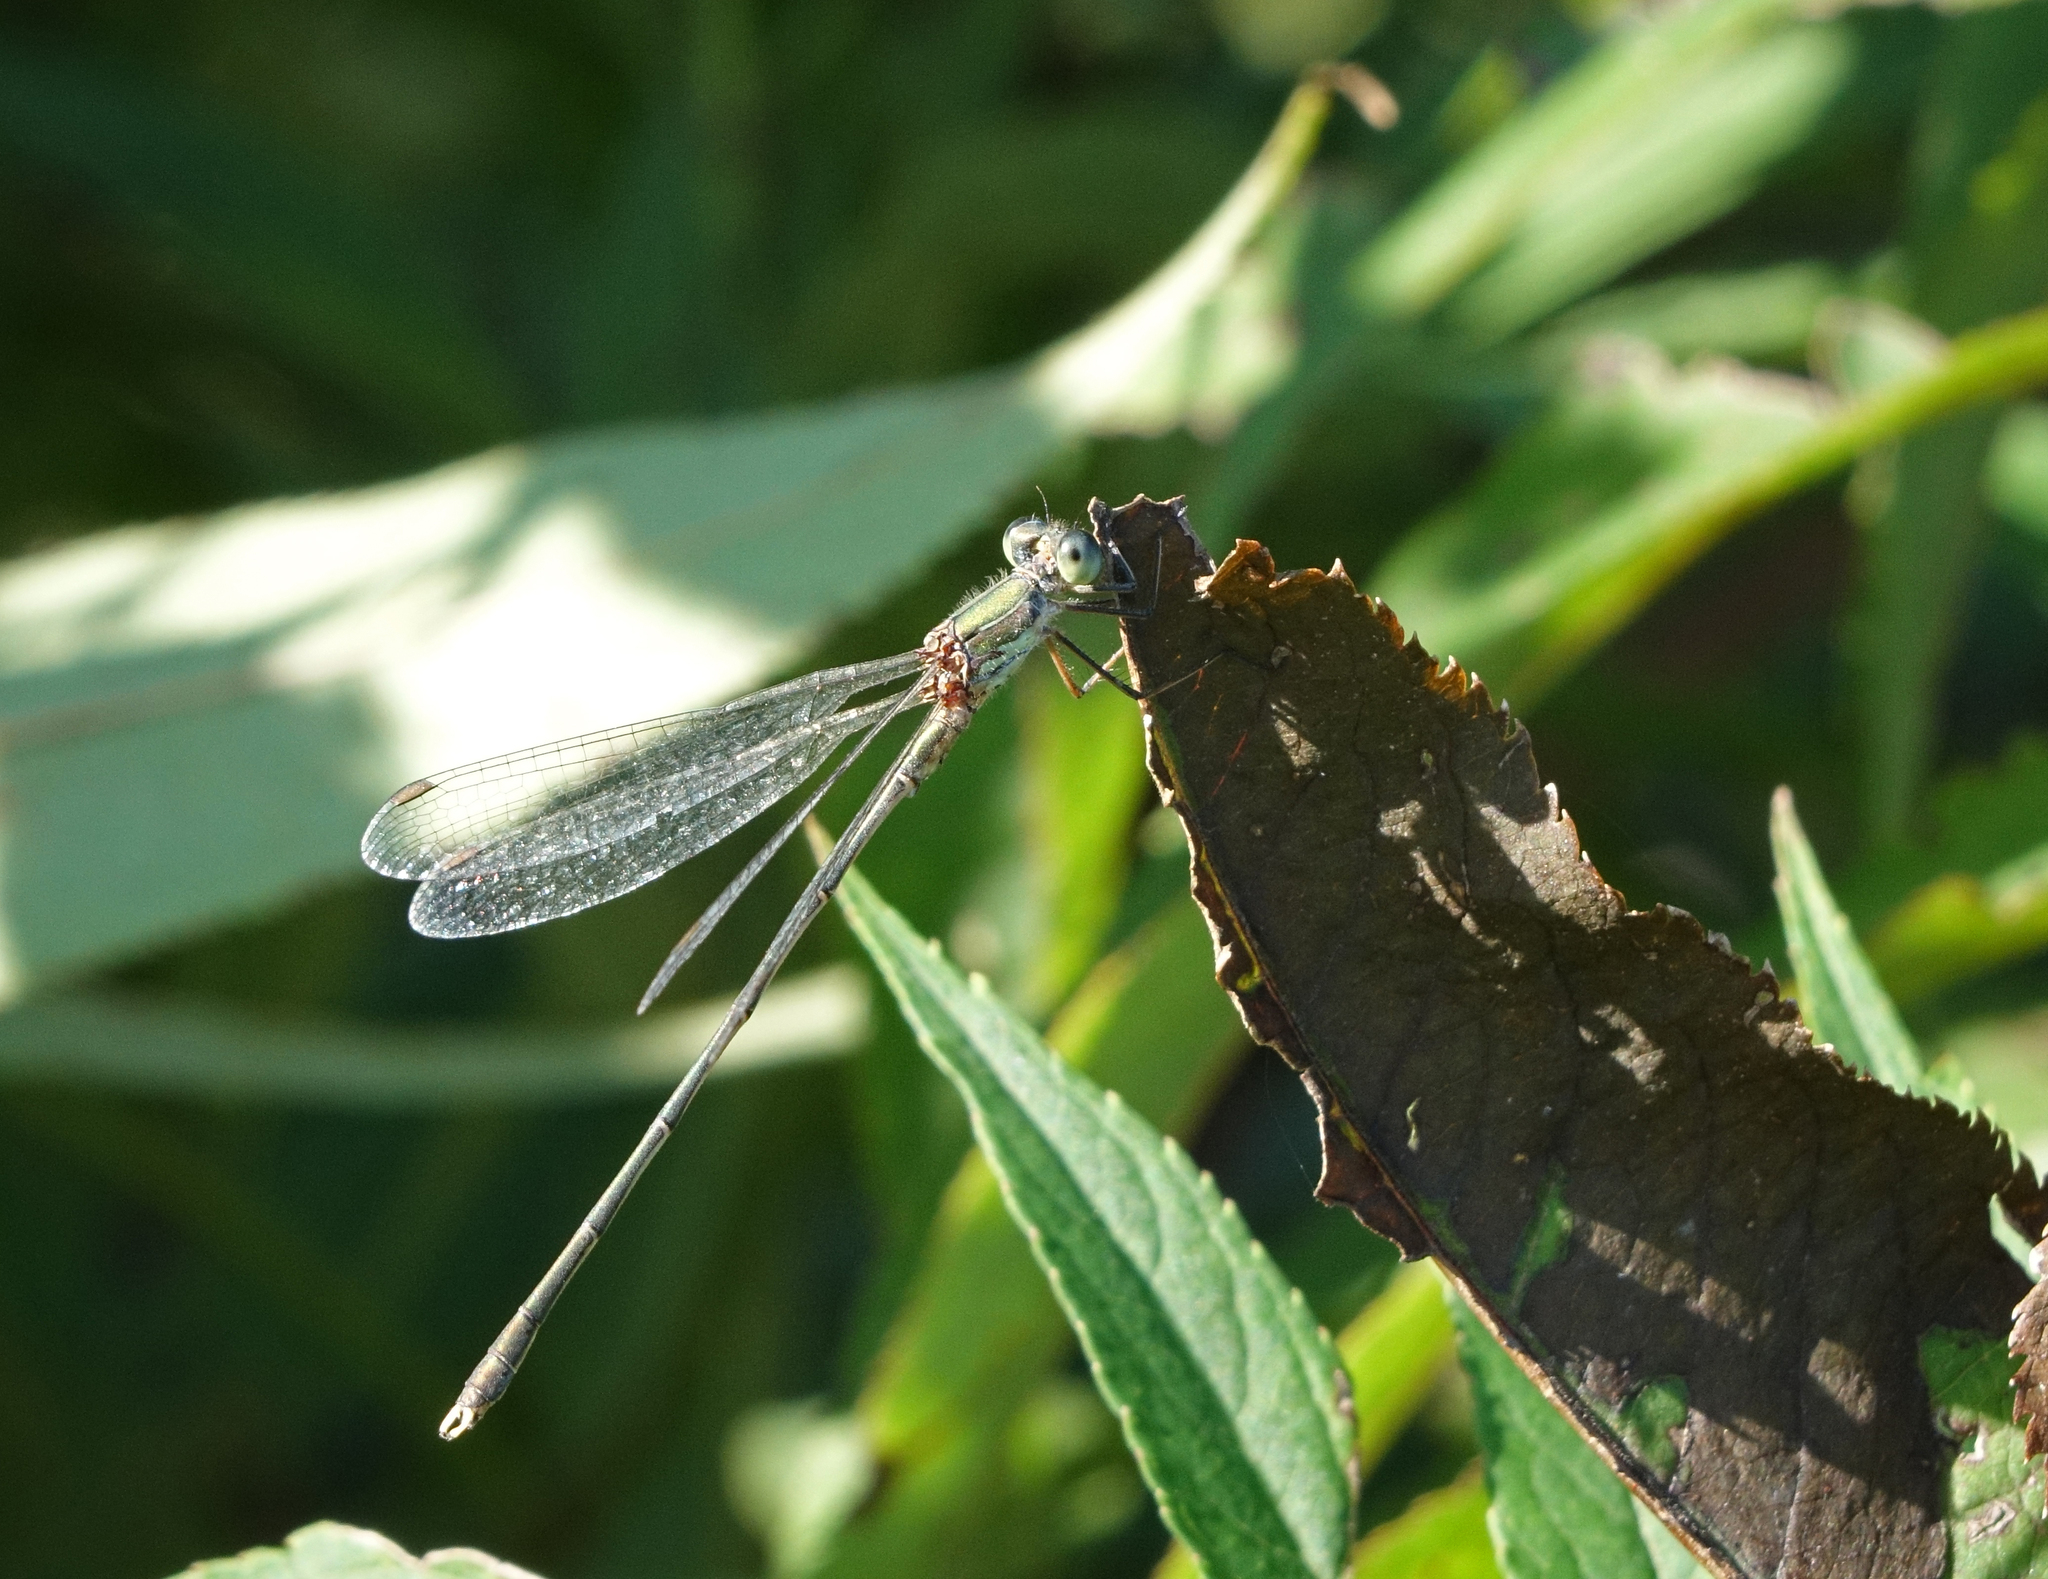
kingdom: Animalia
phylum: Arthropoda
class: Insecta
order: Odonata
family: Lestidae
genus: Chalcolestes
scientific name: Chalcolestes parvidens
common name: Eastern willow spreadwing
